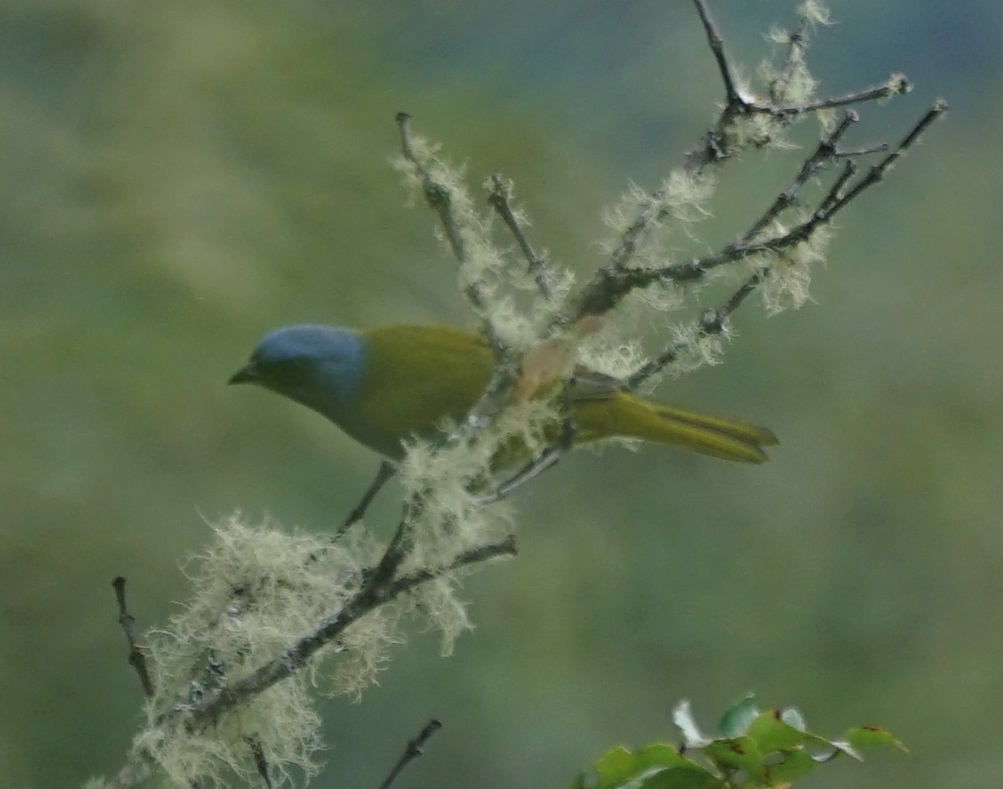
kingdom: Animalia
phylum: Chordata
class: Aves
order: Passeriformes
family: Thraupidae
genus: Sporathraupis
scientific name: Sporathraupis cyanocephala
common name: Blue-capped tanager
